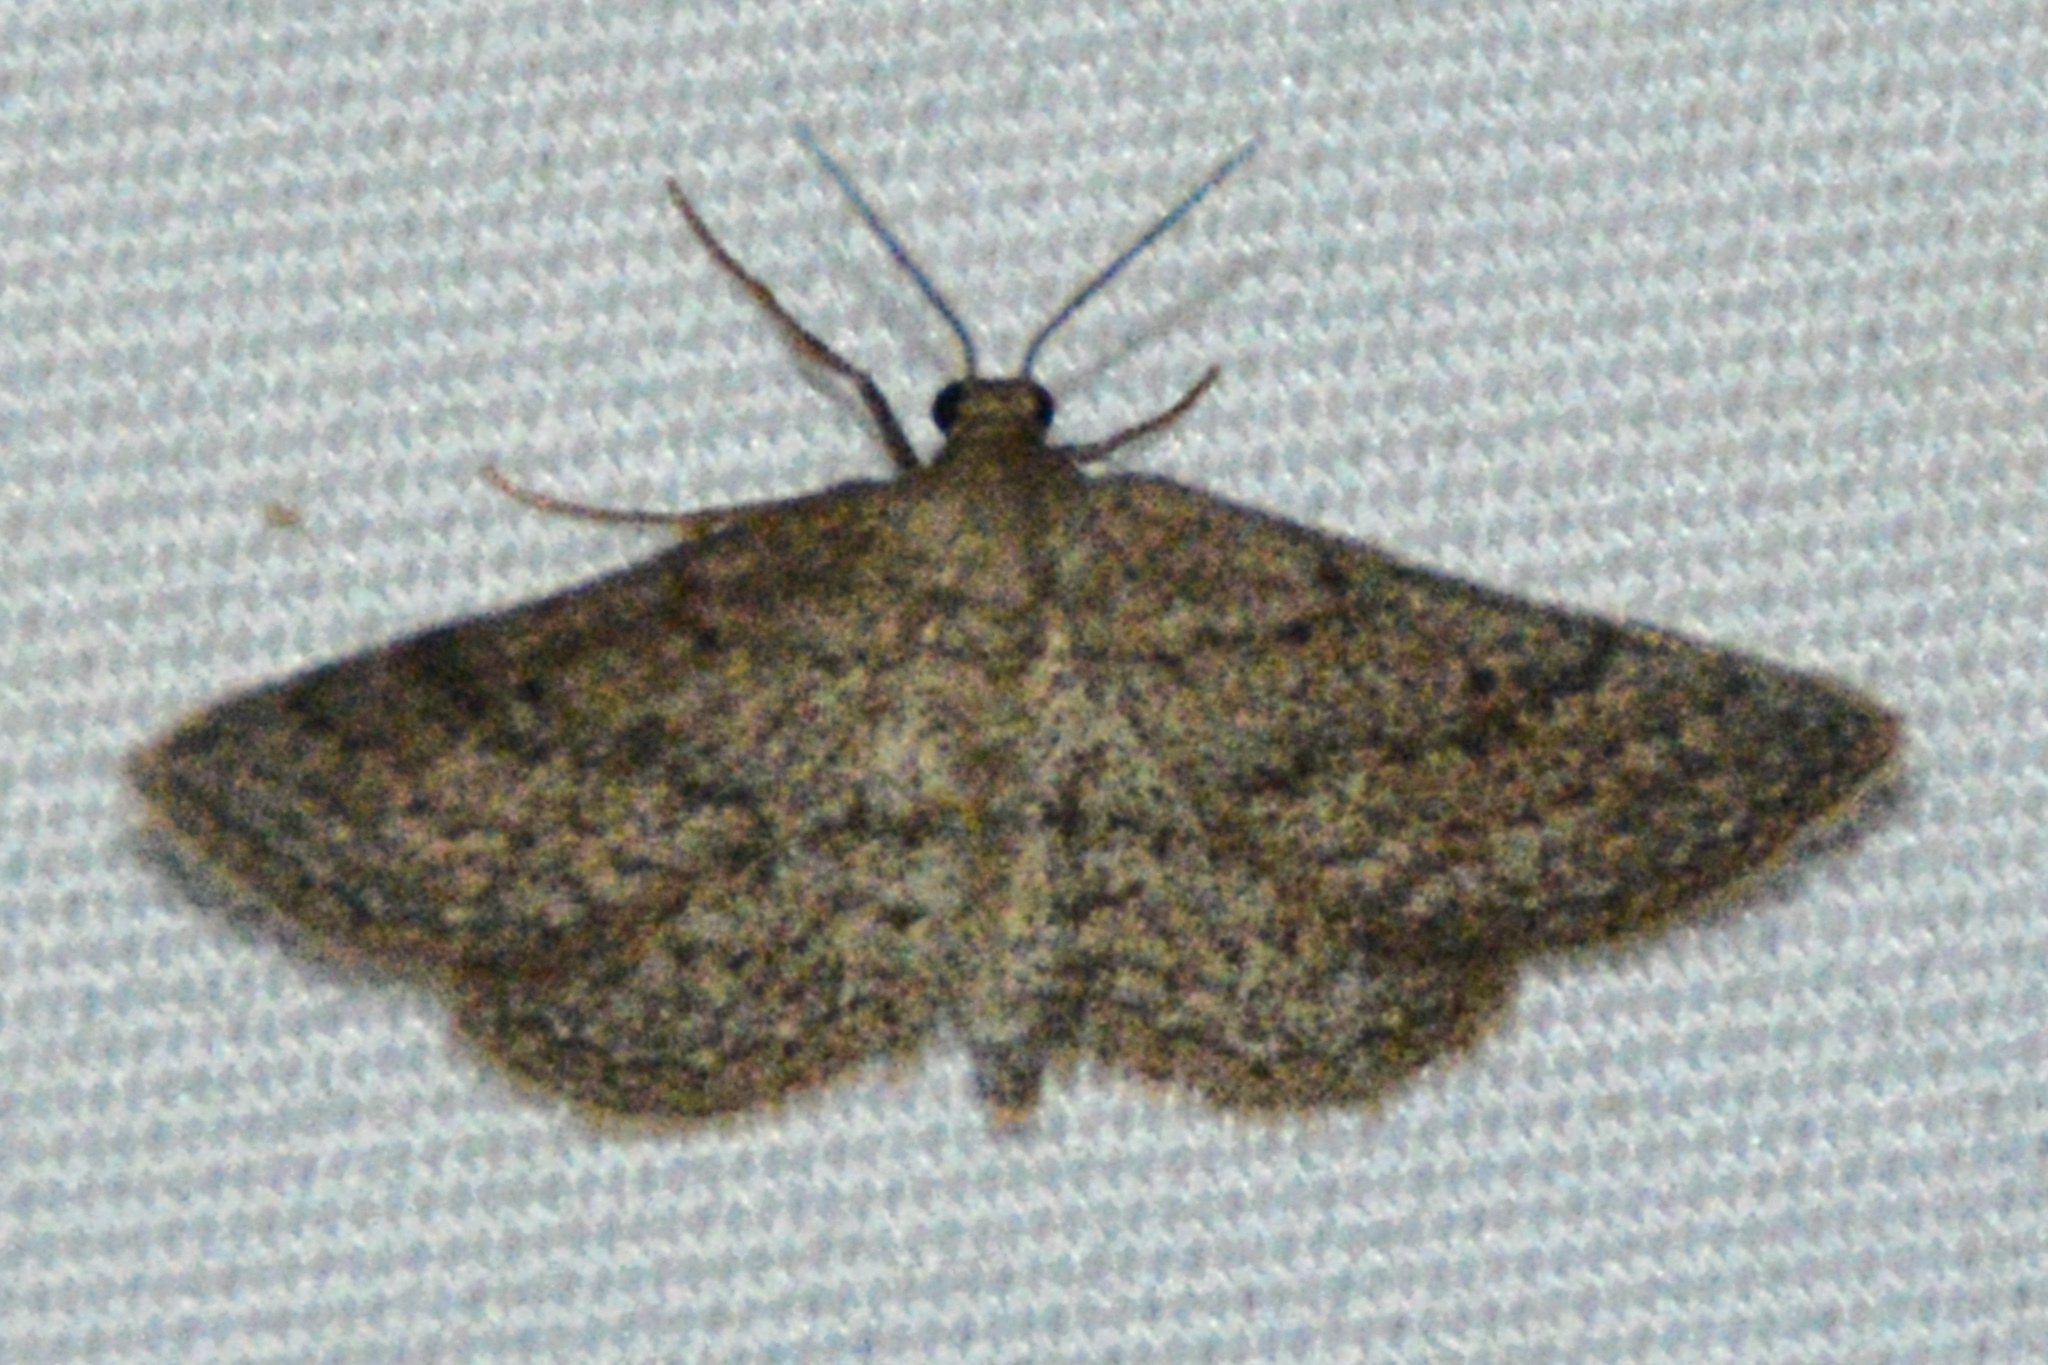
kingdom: Animalia
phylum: Arthropoda
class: Insecta
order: Lepidoptera
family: Geometridae
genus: Lobocleta
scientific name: Lobocleta ossularia
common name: Drab brown wave
